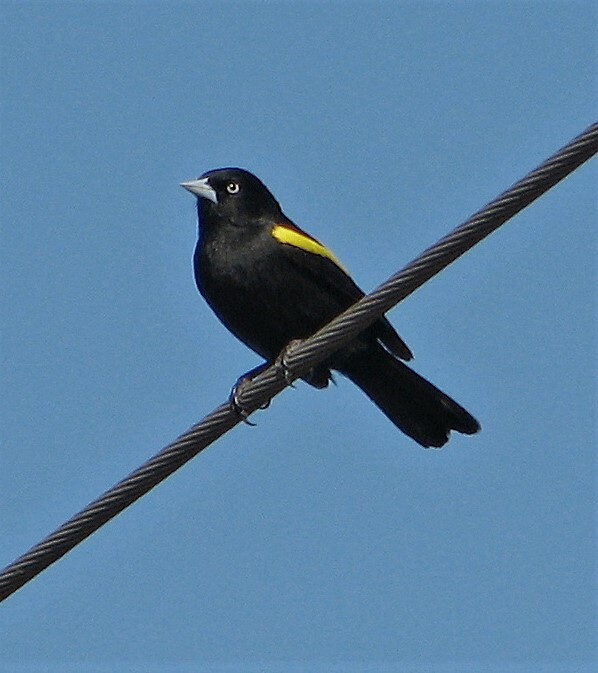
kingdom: Animalia
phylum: Chordata
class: Aves
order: Passeriformes
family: Icteridae
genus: Cacicus
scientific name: Cacicus chrysopterus
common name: Golden-winged cacique
